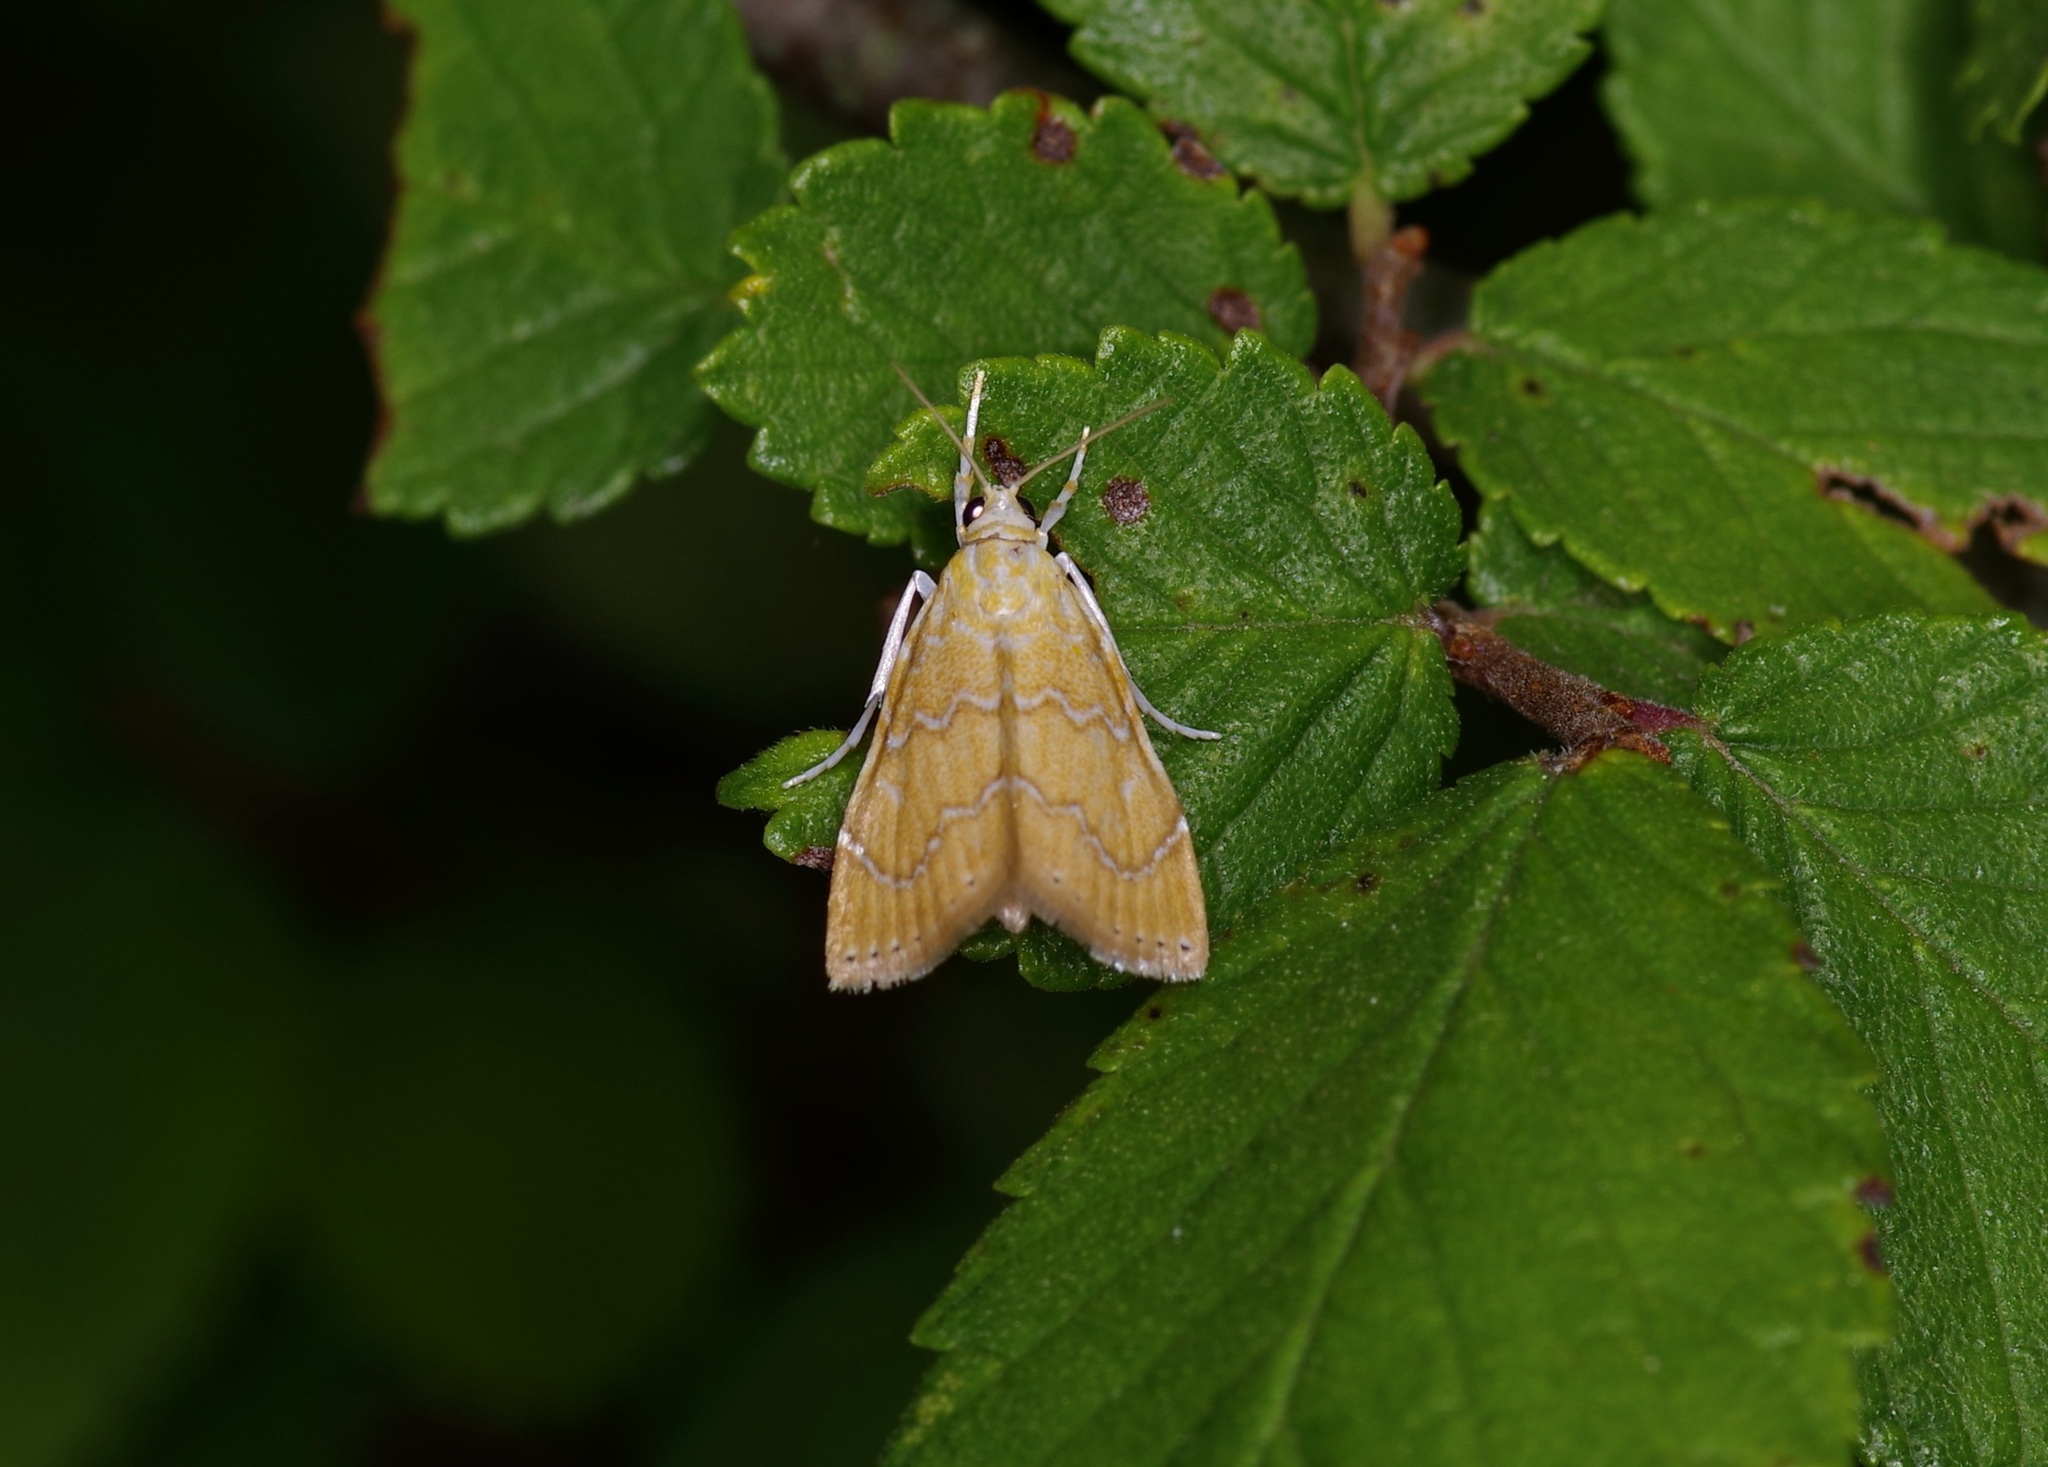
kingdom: Animalia
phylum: Arthropoda
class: Insecta
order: Lepidoptera
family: Crambidae
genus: Glaphyria
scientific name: Glaphyria sesquistrialis
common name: White-roped glaphyria
